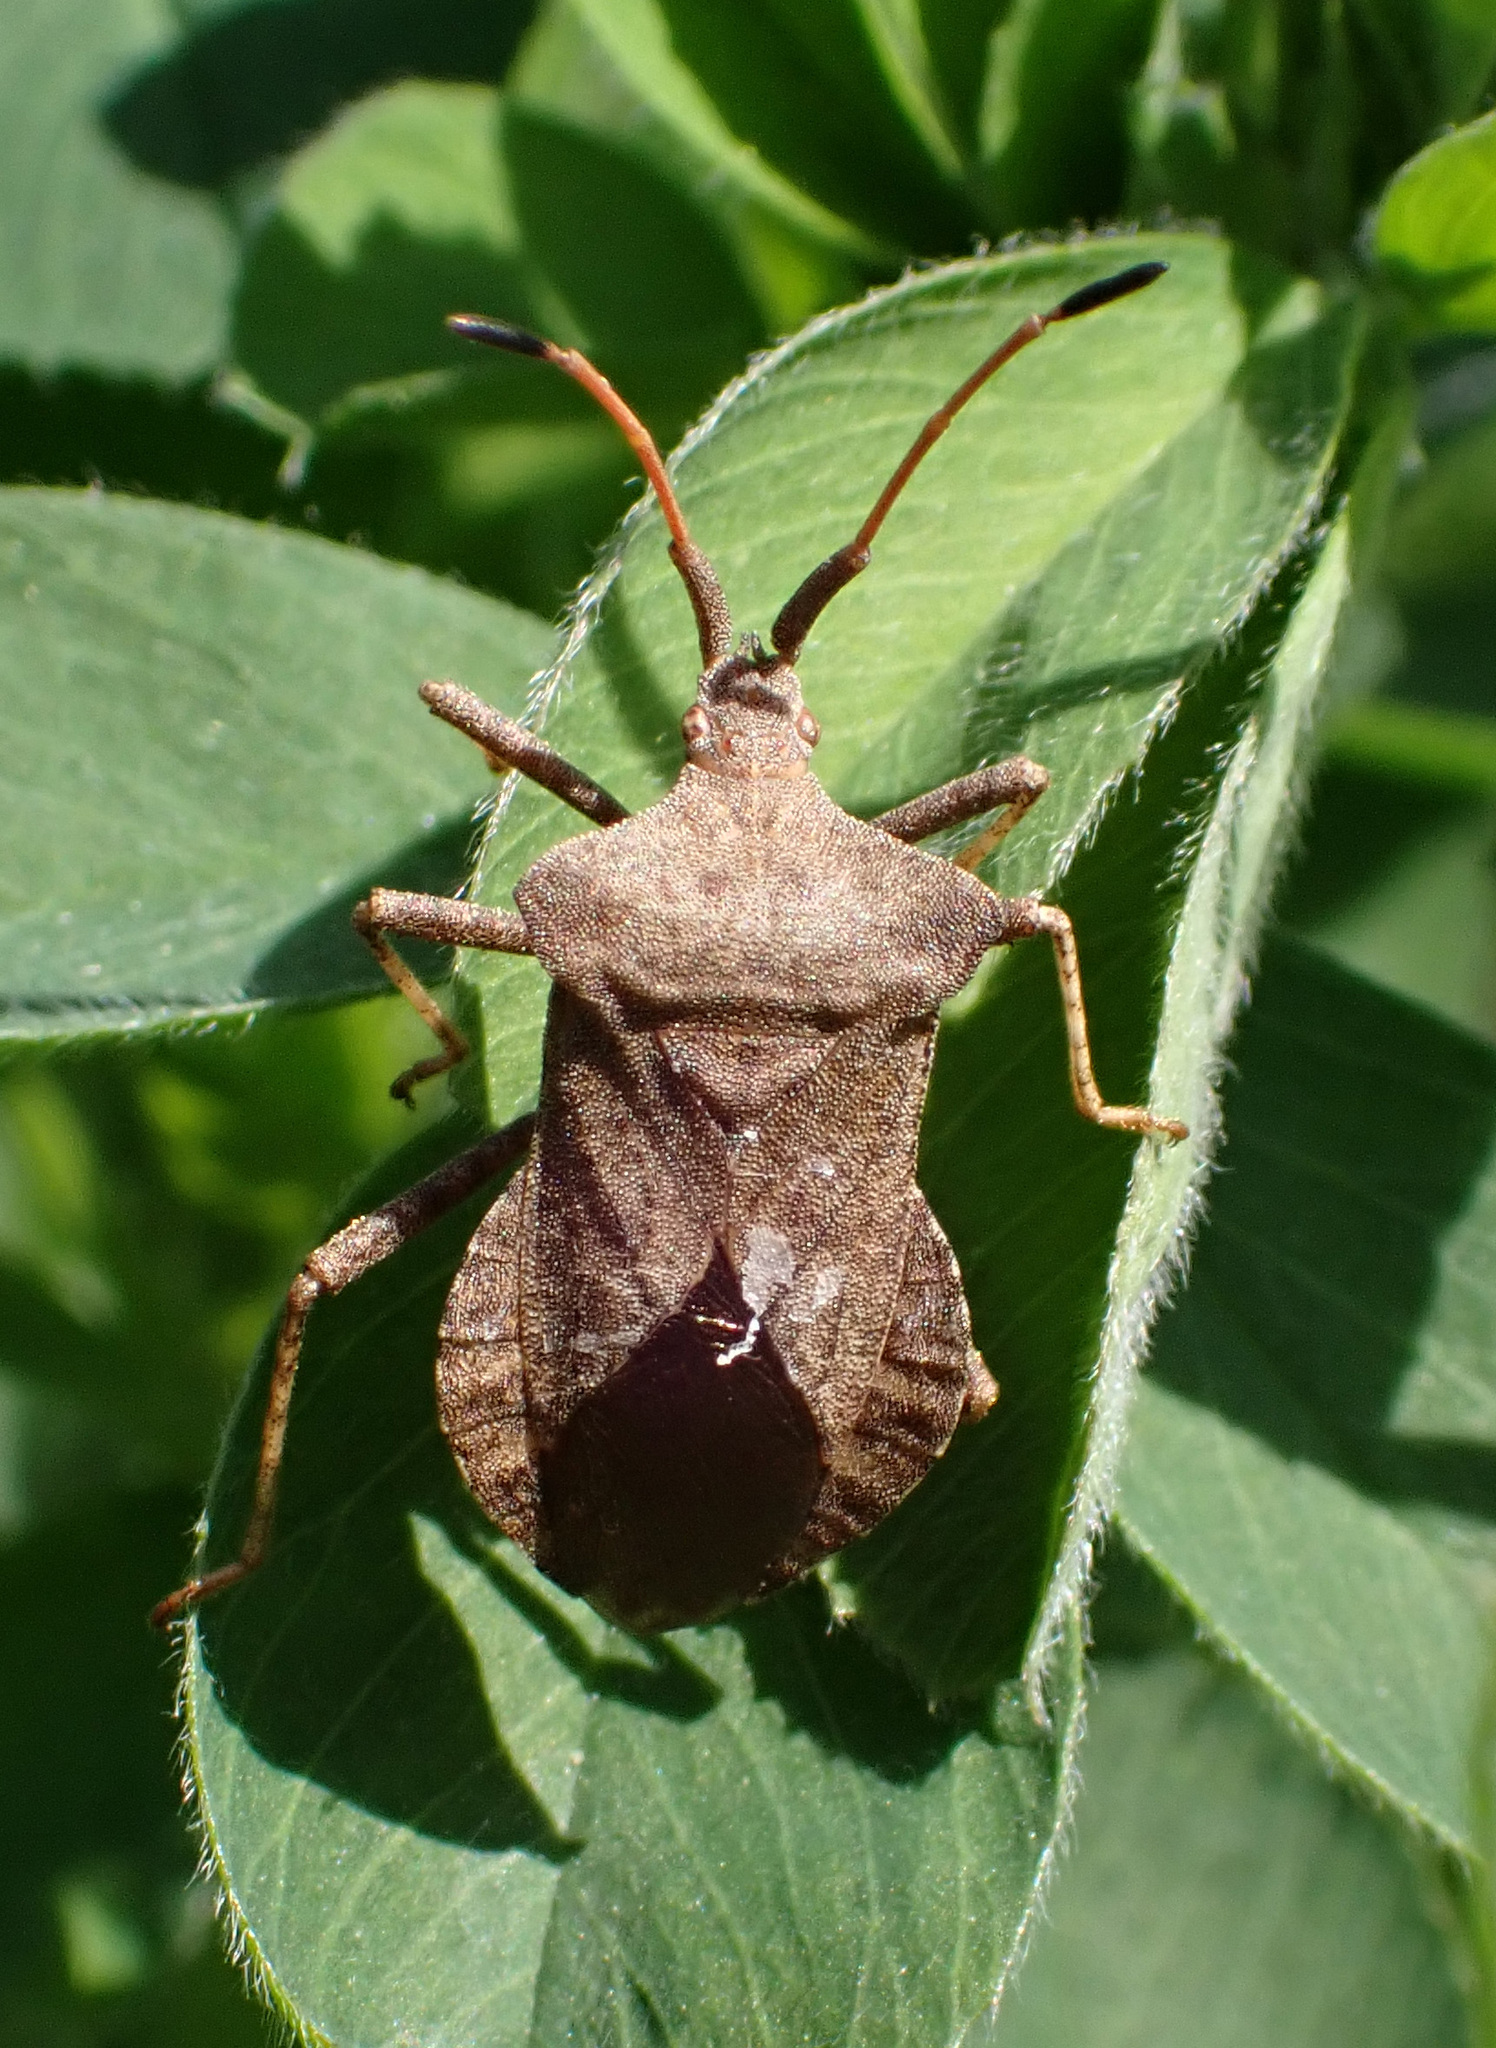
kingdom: Animalia
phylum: Arthropoda
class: Insecta
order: Hemiptera
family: Coreidae
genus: Coreus
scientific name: Coreus marginatus
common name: Dock bug
